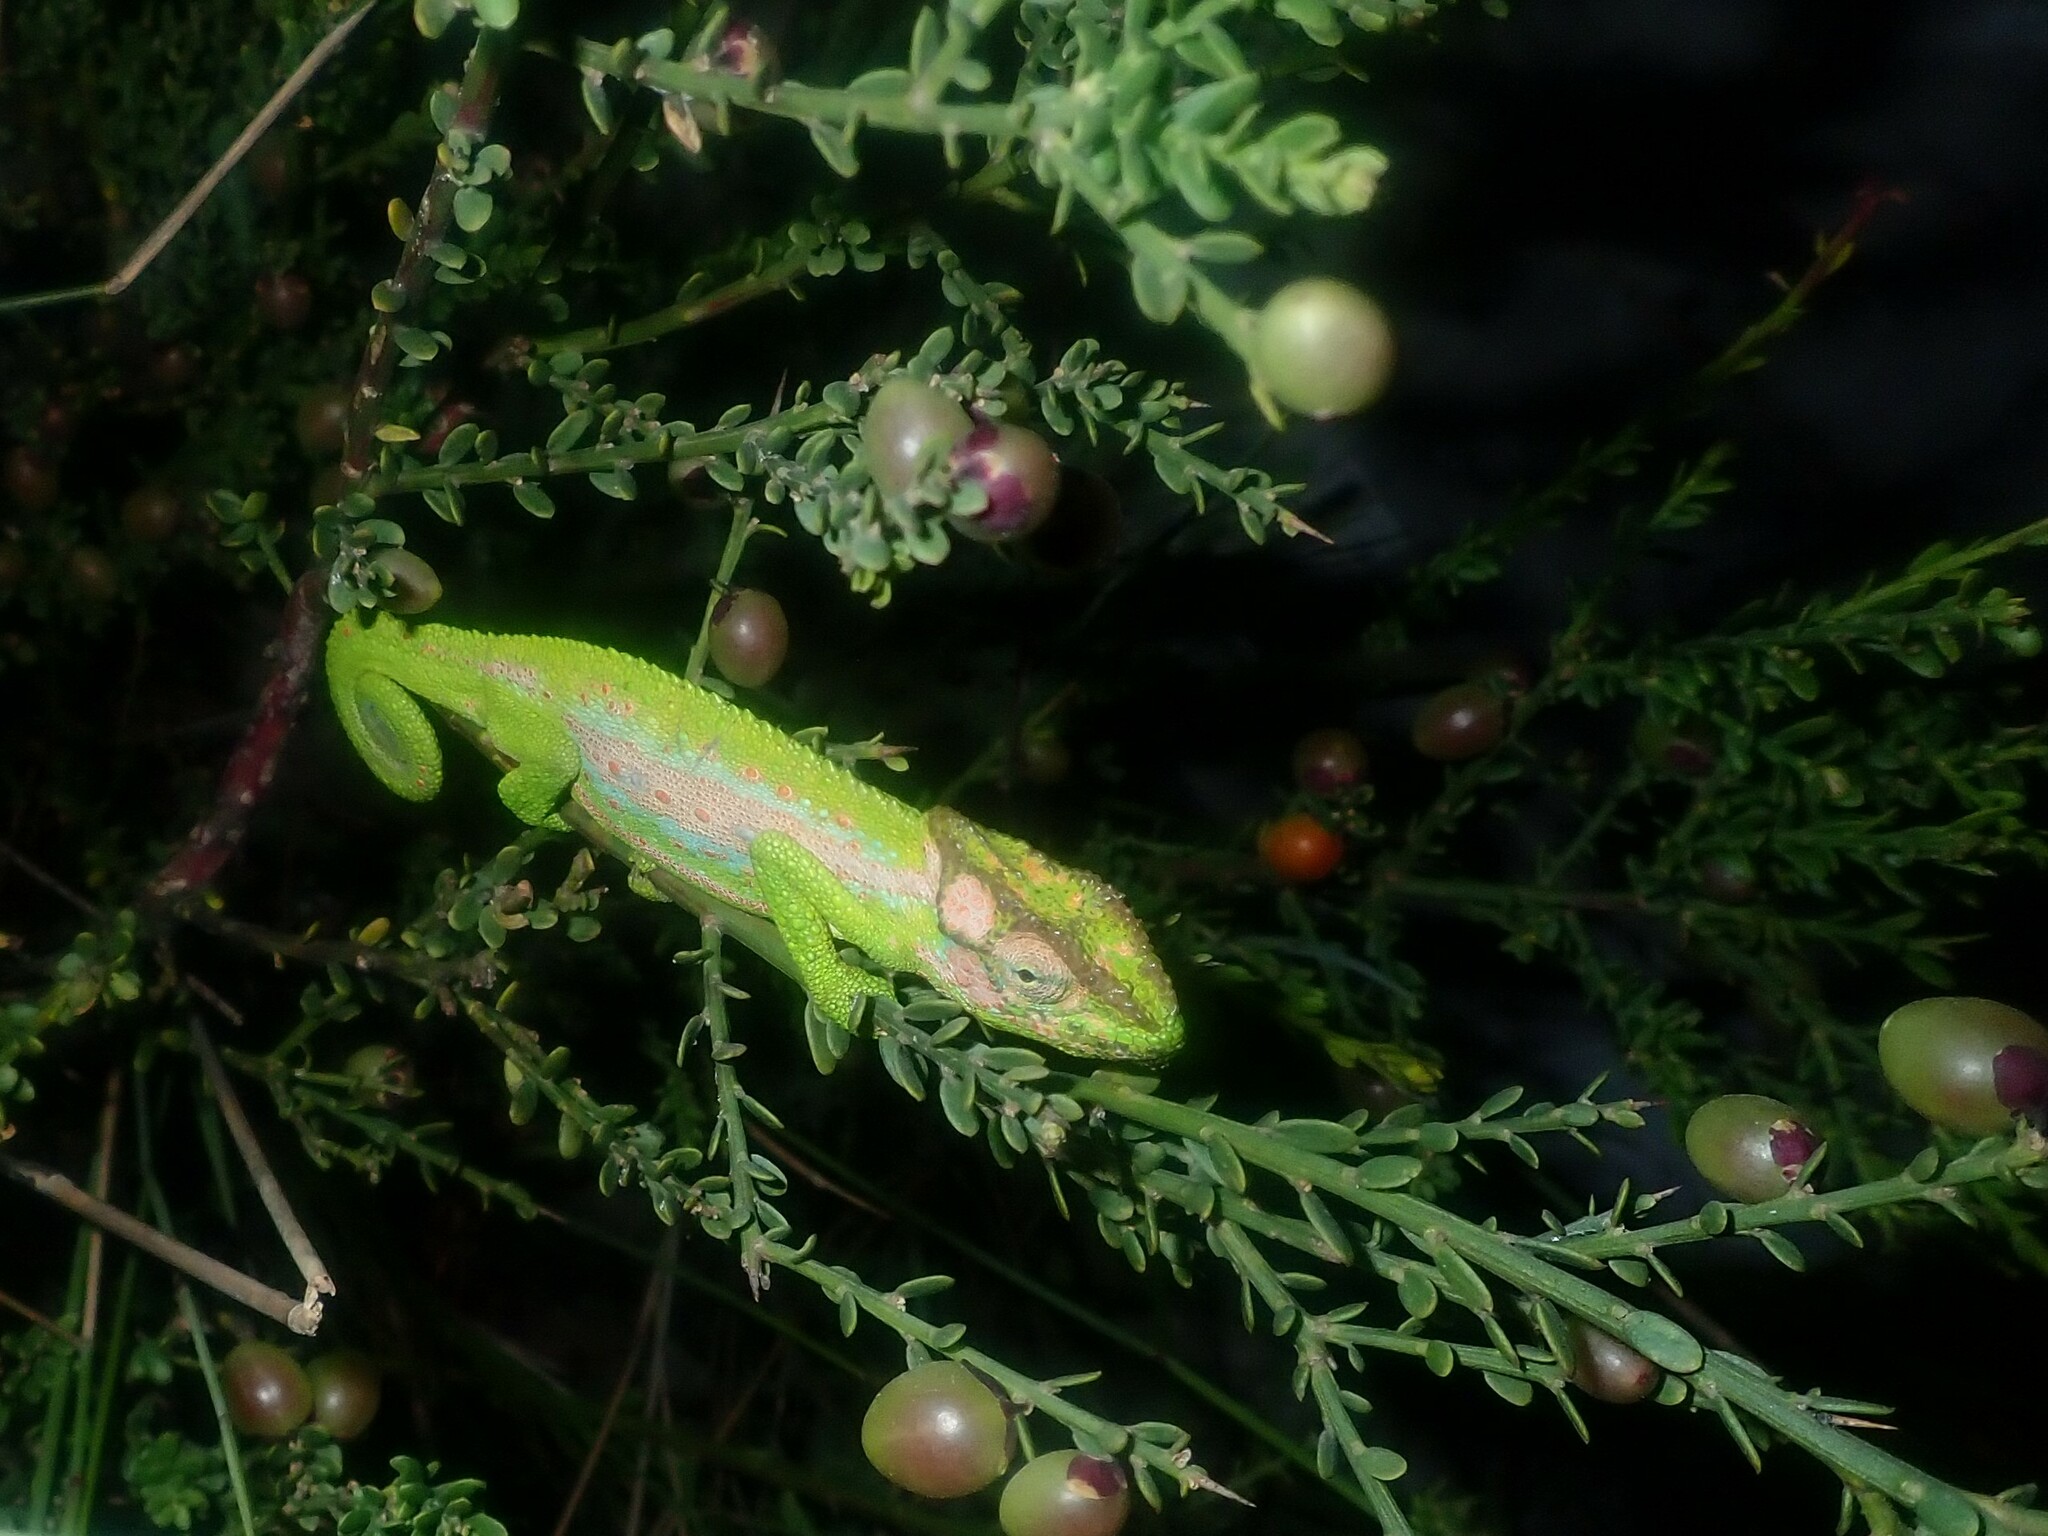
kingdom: Animalia
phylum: Chordata
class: Squamata
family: Chamaeleonidae
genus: Bradypodion
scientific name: Bradypodion pumilum
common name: Cape dwarf chameleon
